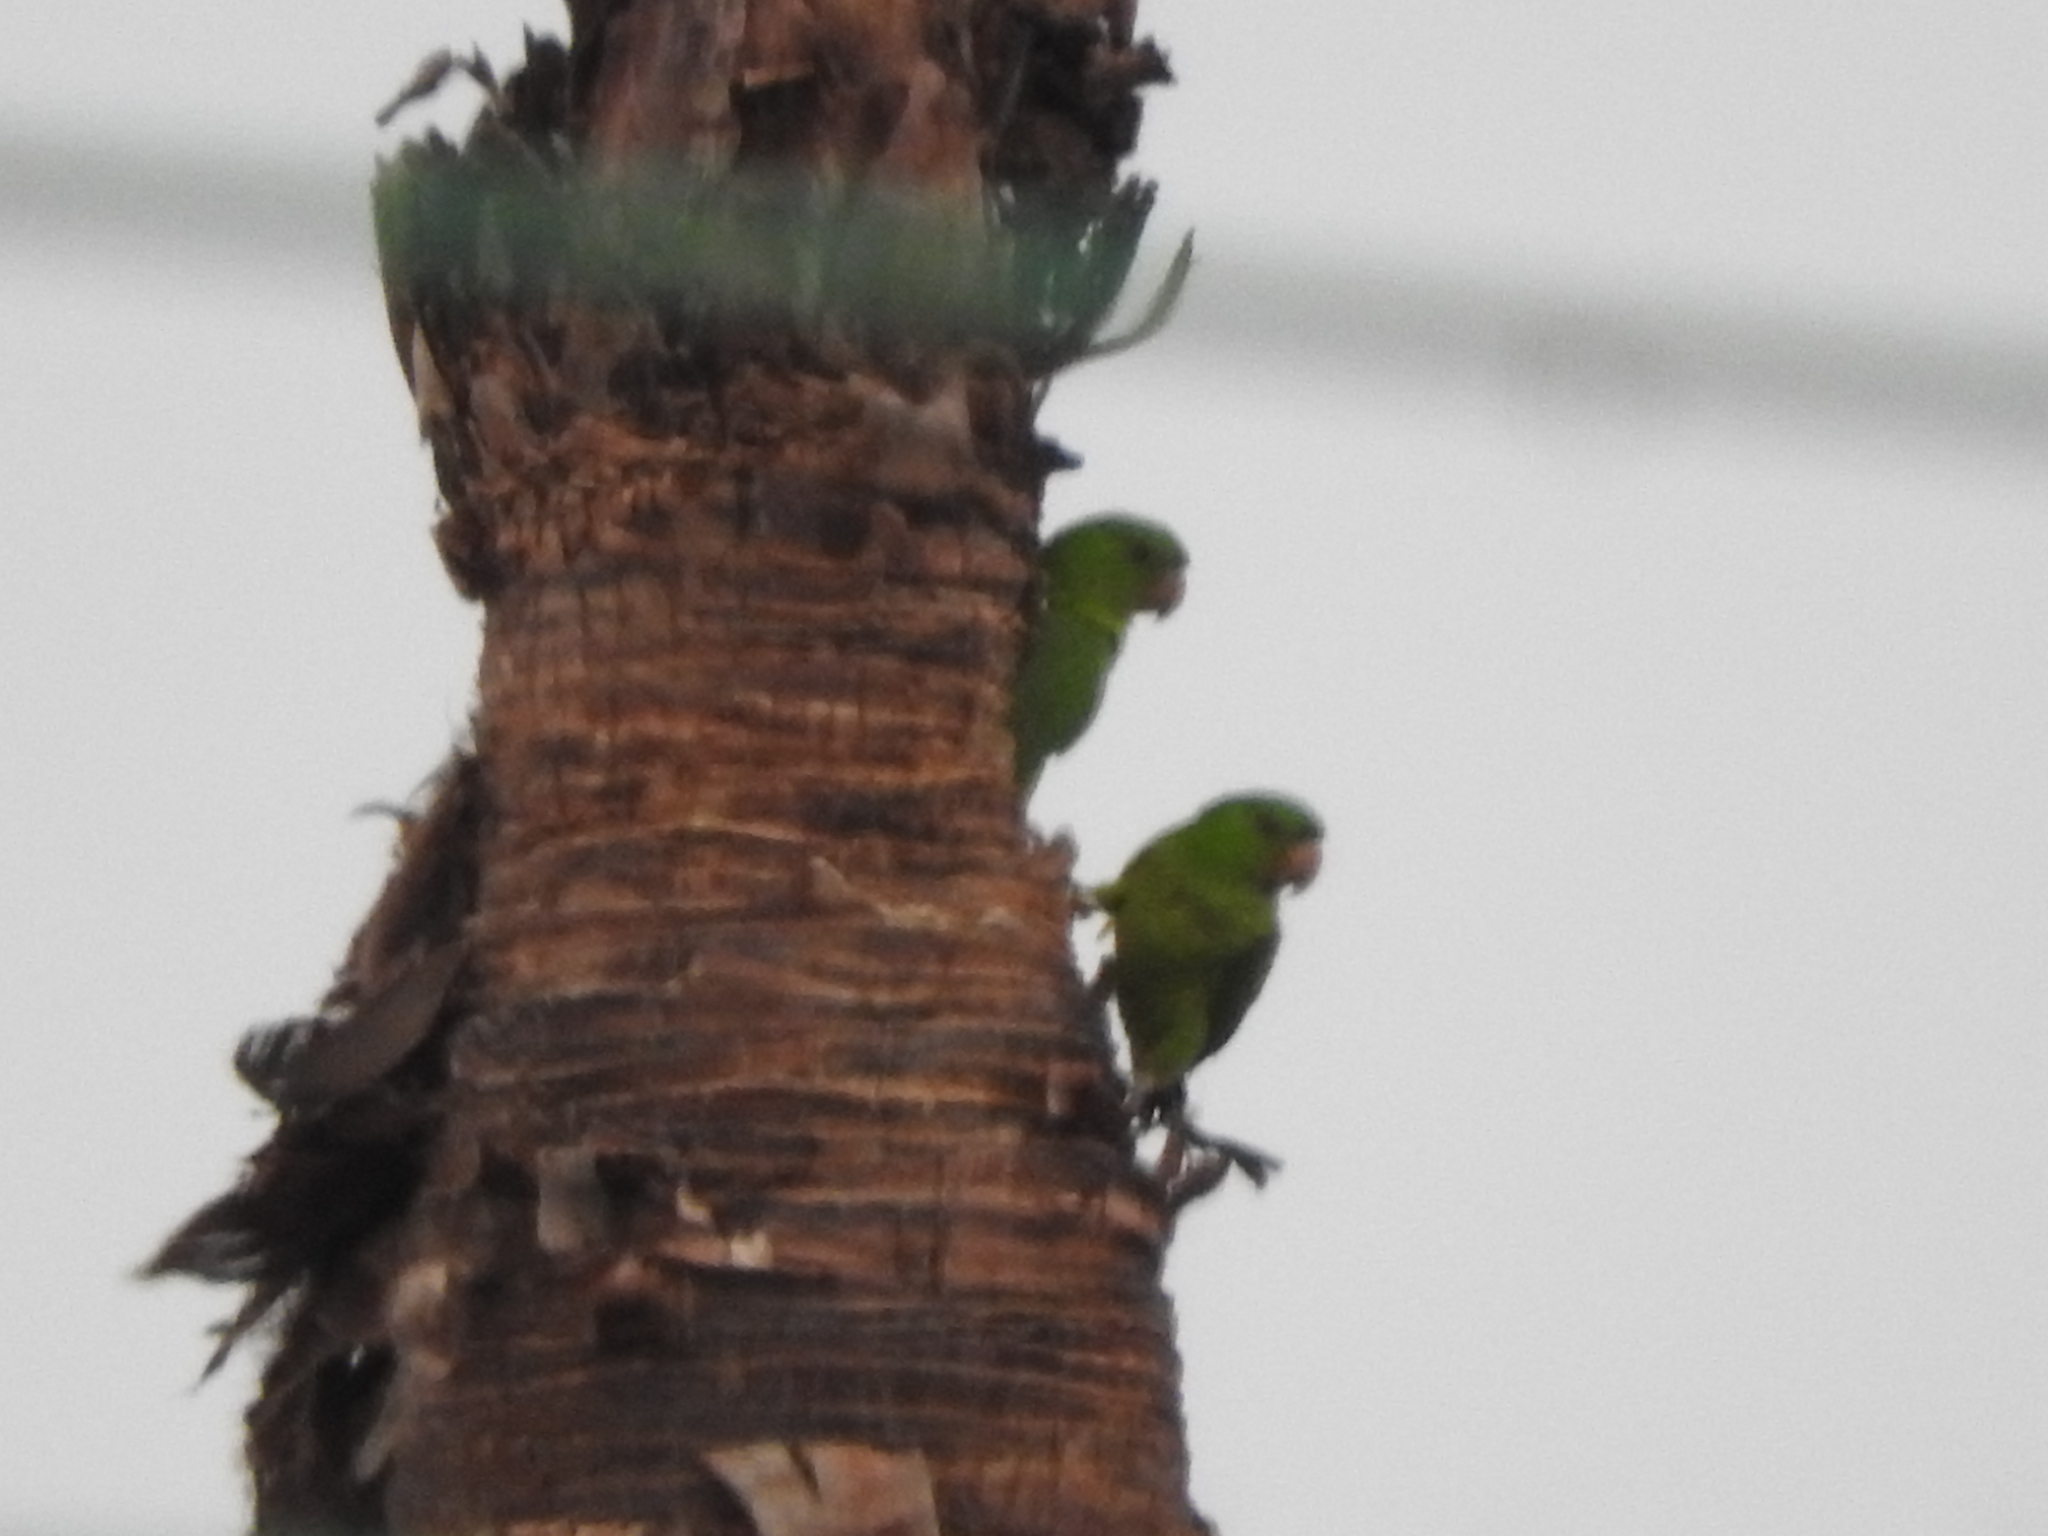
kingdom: Animalia
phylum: Chordata
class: Aves
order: Psittaciformes
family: Psittacidae
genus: Aratinga
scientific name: Aratinga holochlora
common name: Green parakeet
